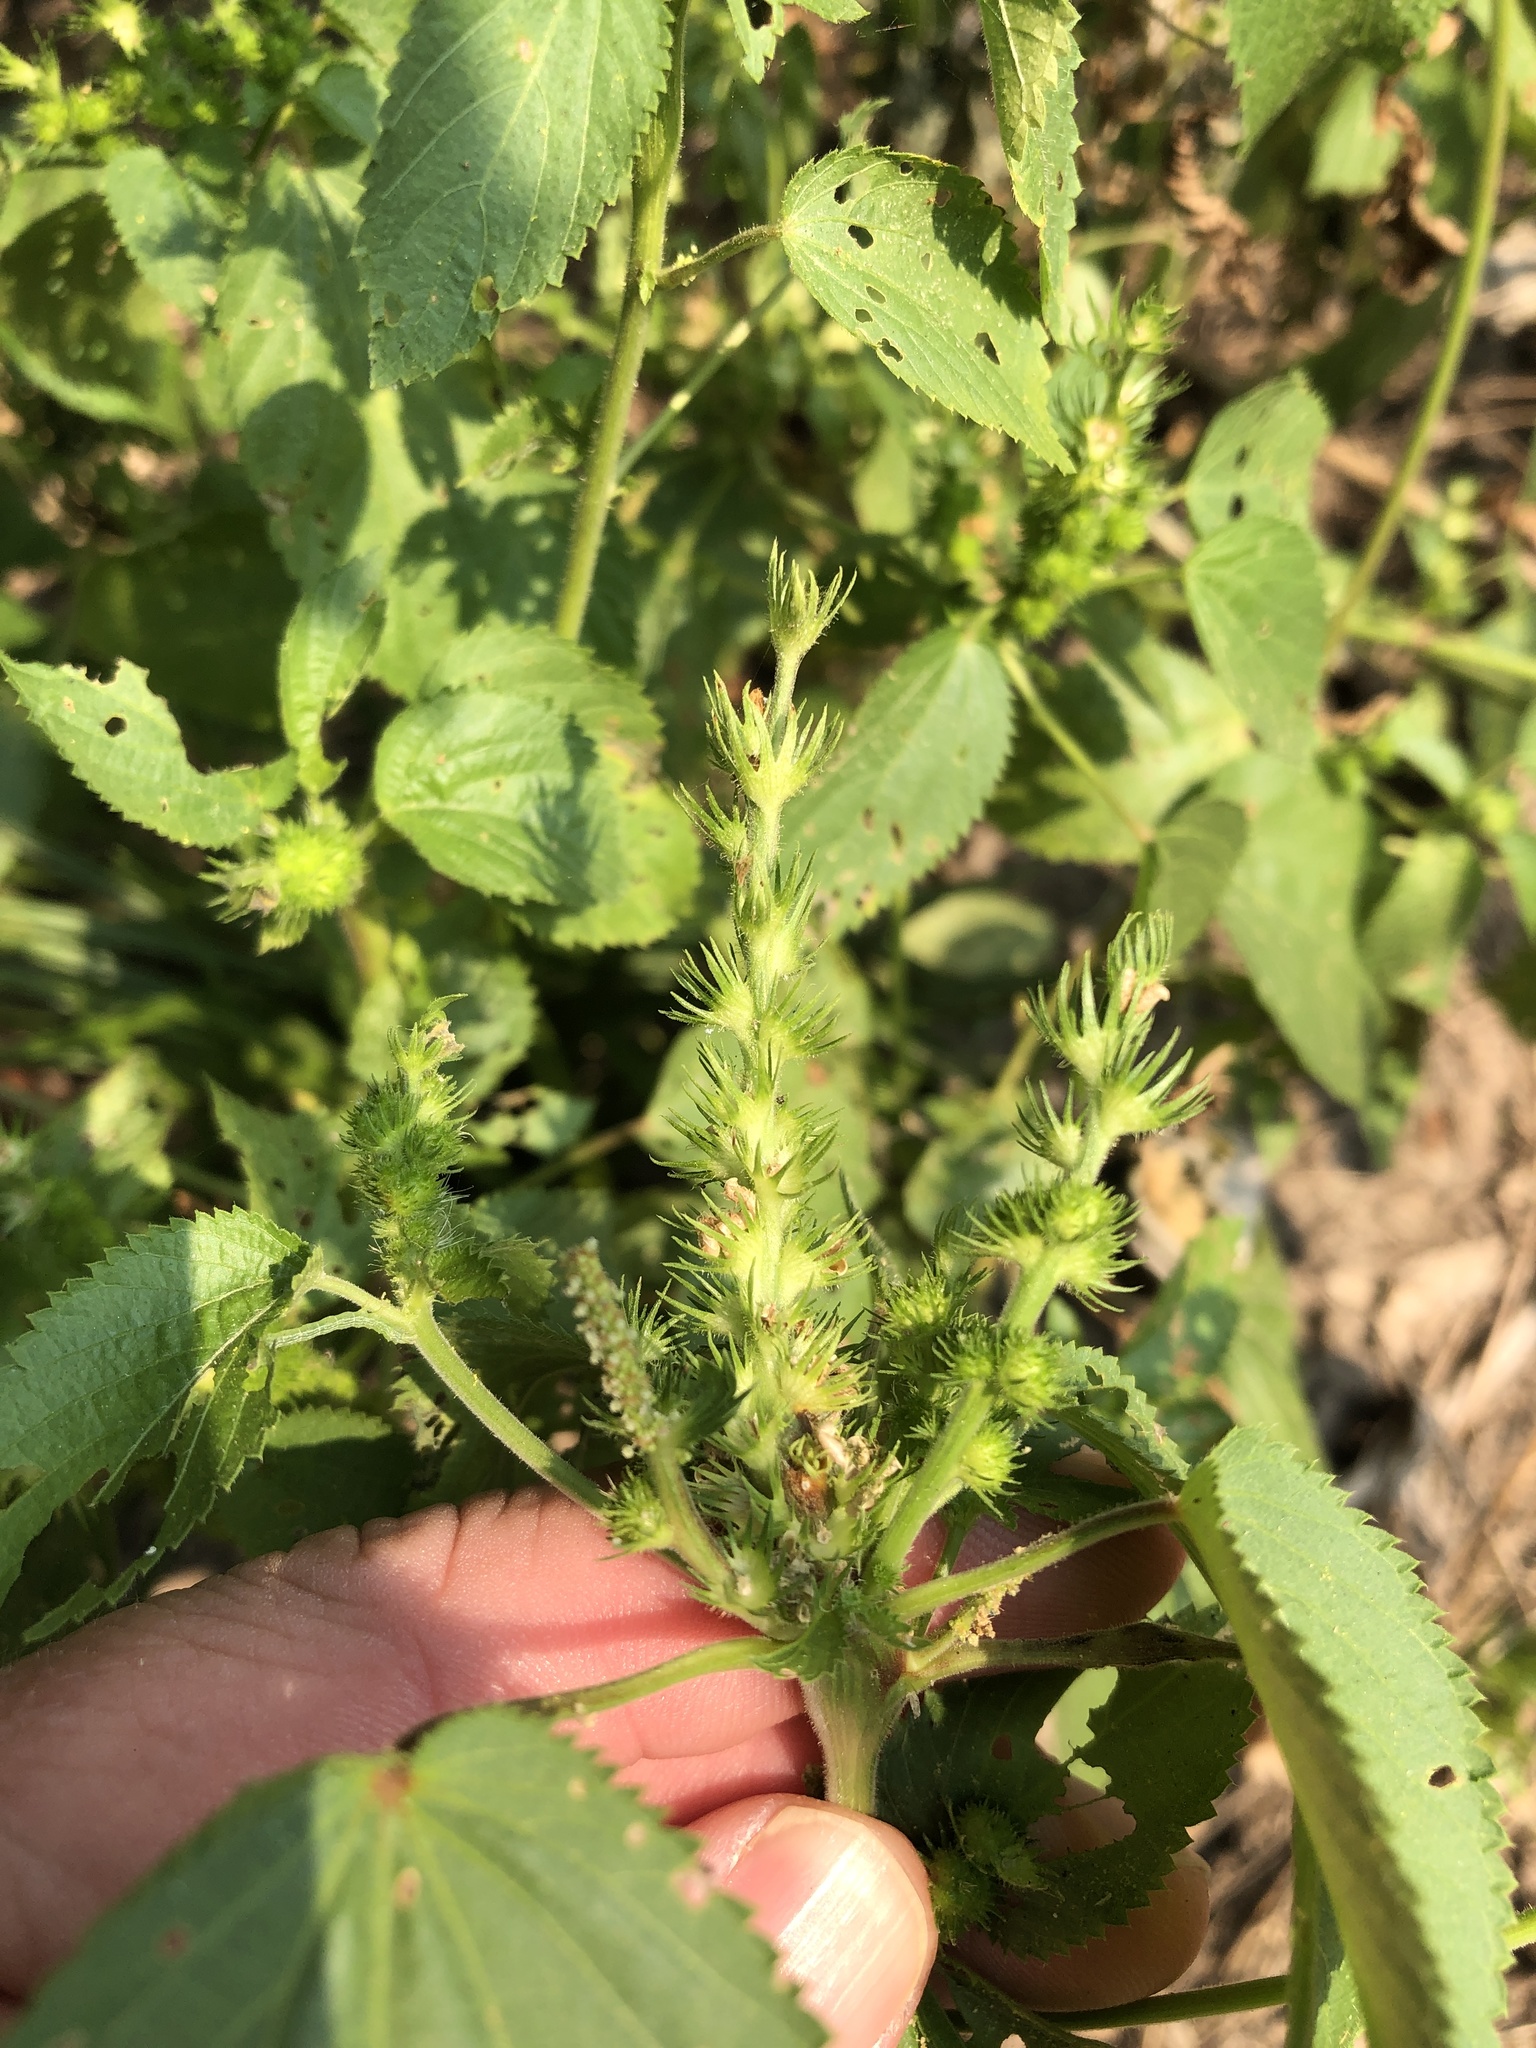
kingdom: Plantae
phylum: Tracheophyta
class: Magnoliopsida
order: Malpighiales
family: Euphorbiaceae
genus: Acalypha
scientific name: Acalypha ostryifolia
